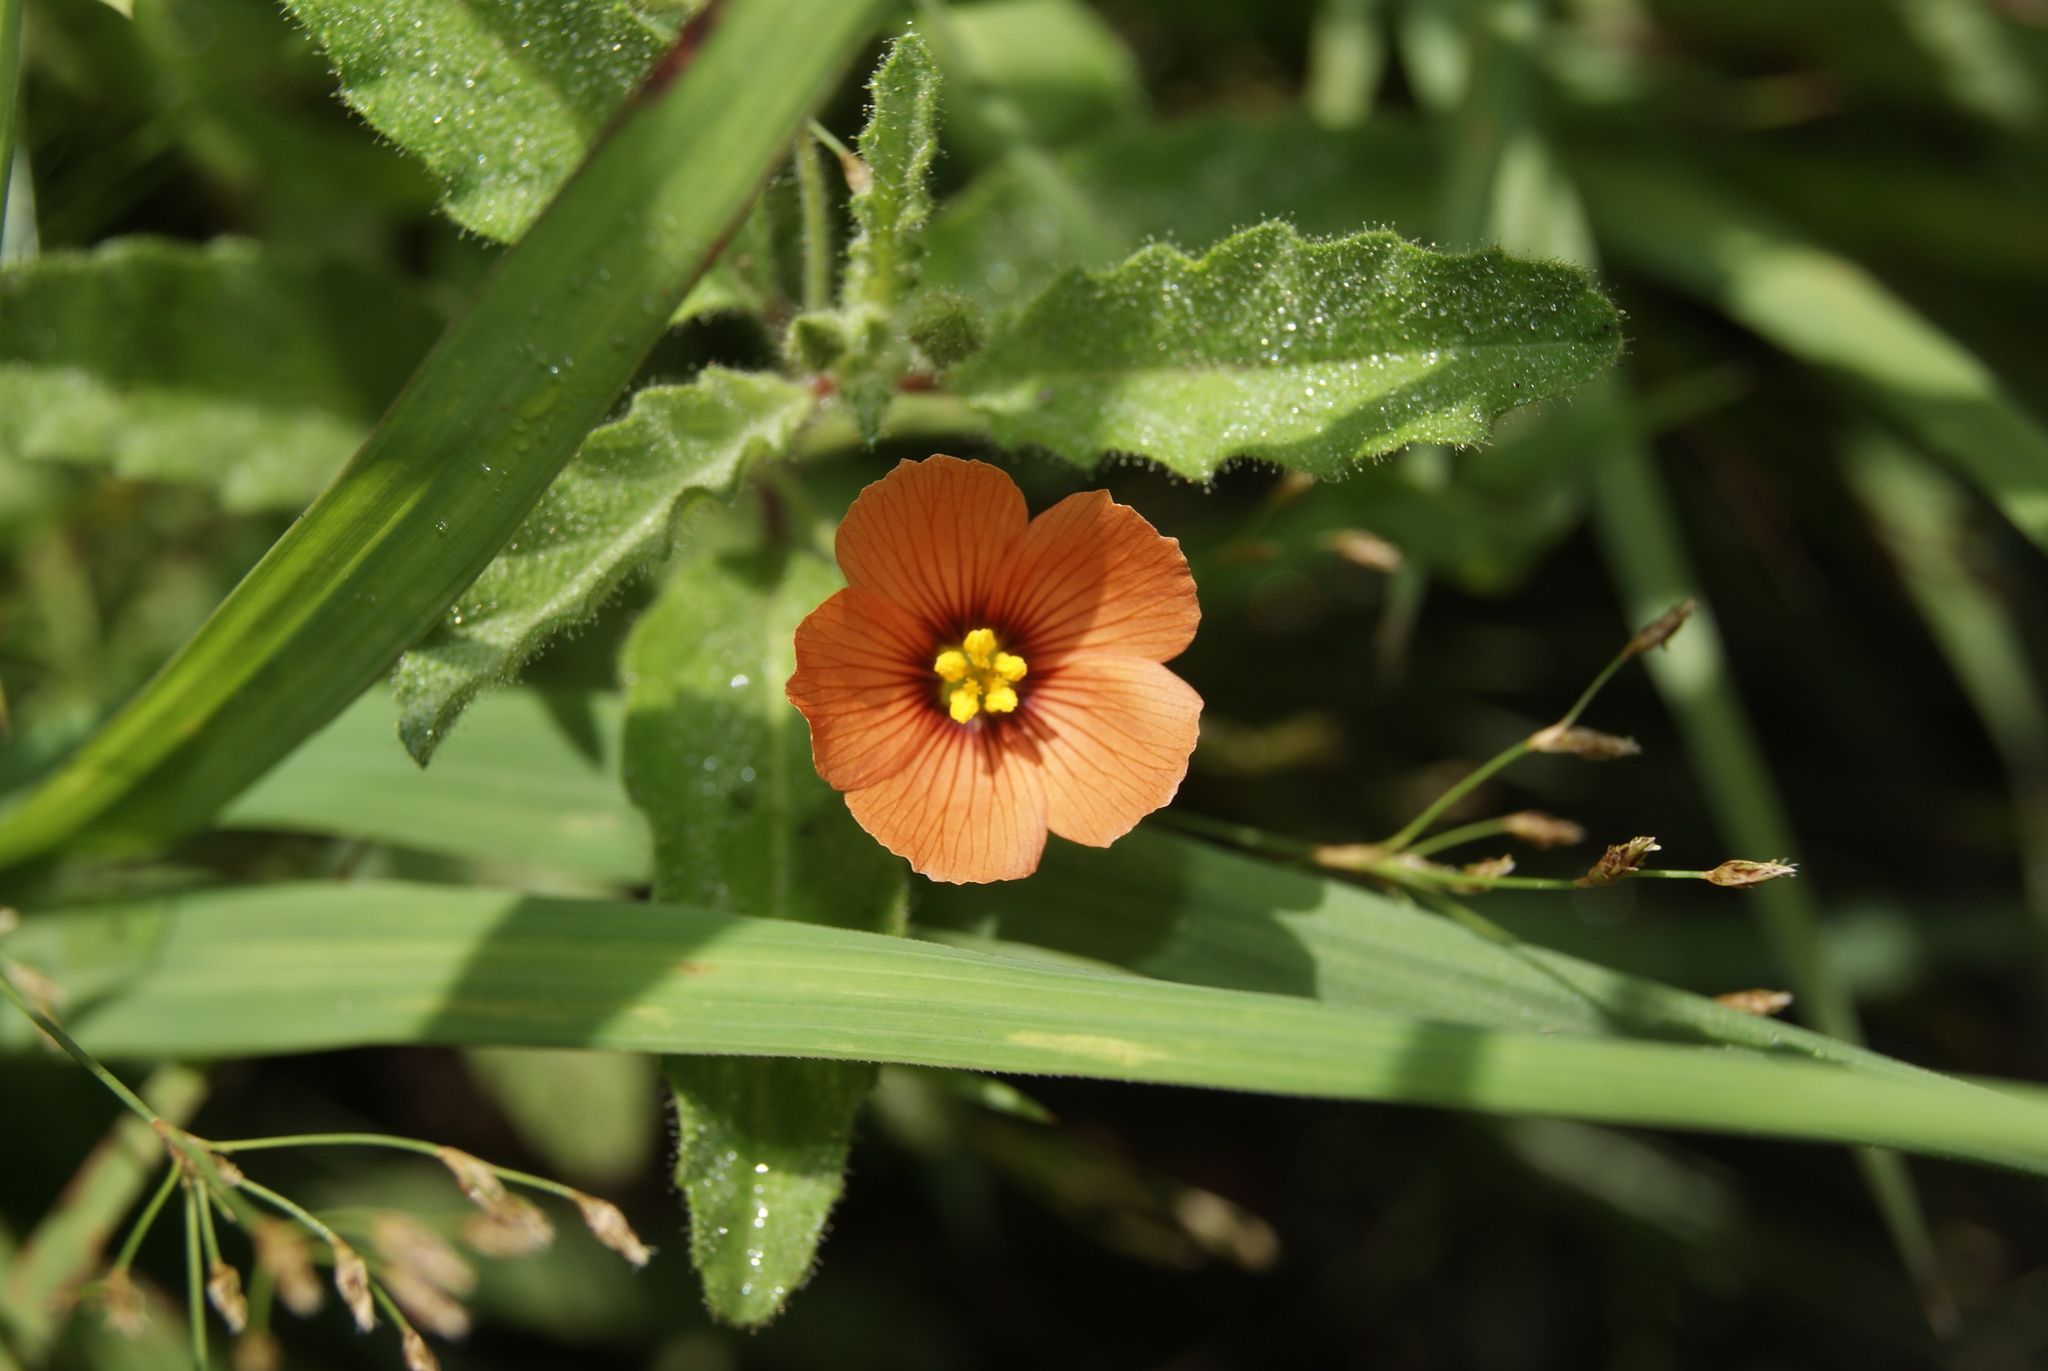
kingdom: Plantae
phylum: Tracheophyta
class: Magnoliopsida
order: Malpighiales
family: Turneraceae
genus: Piriqueta
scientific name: Piriqueta mexicana
